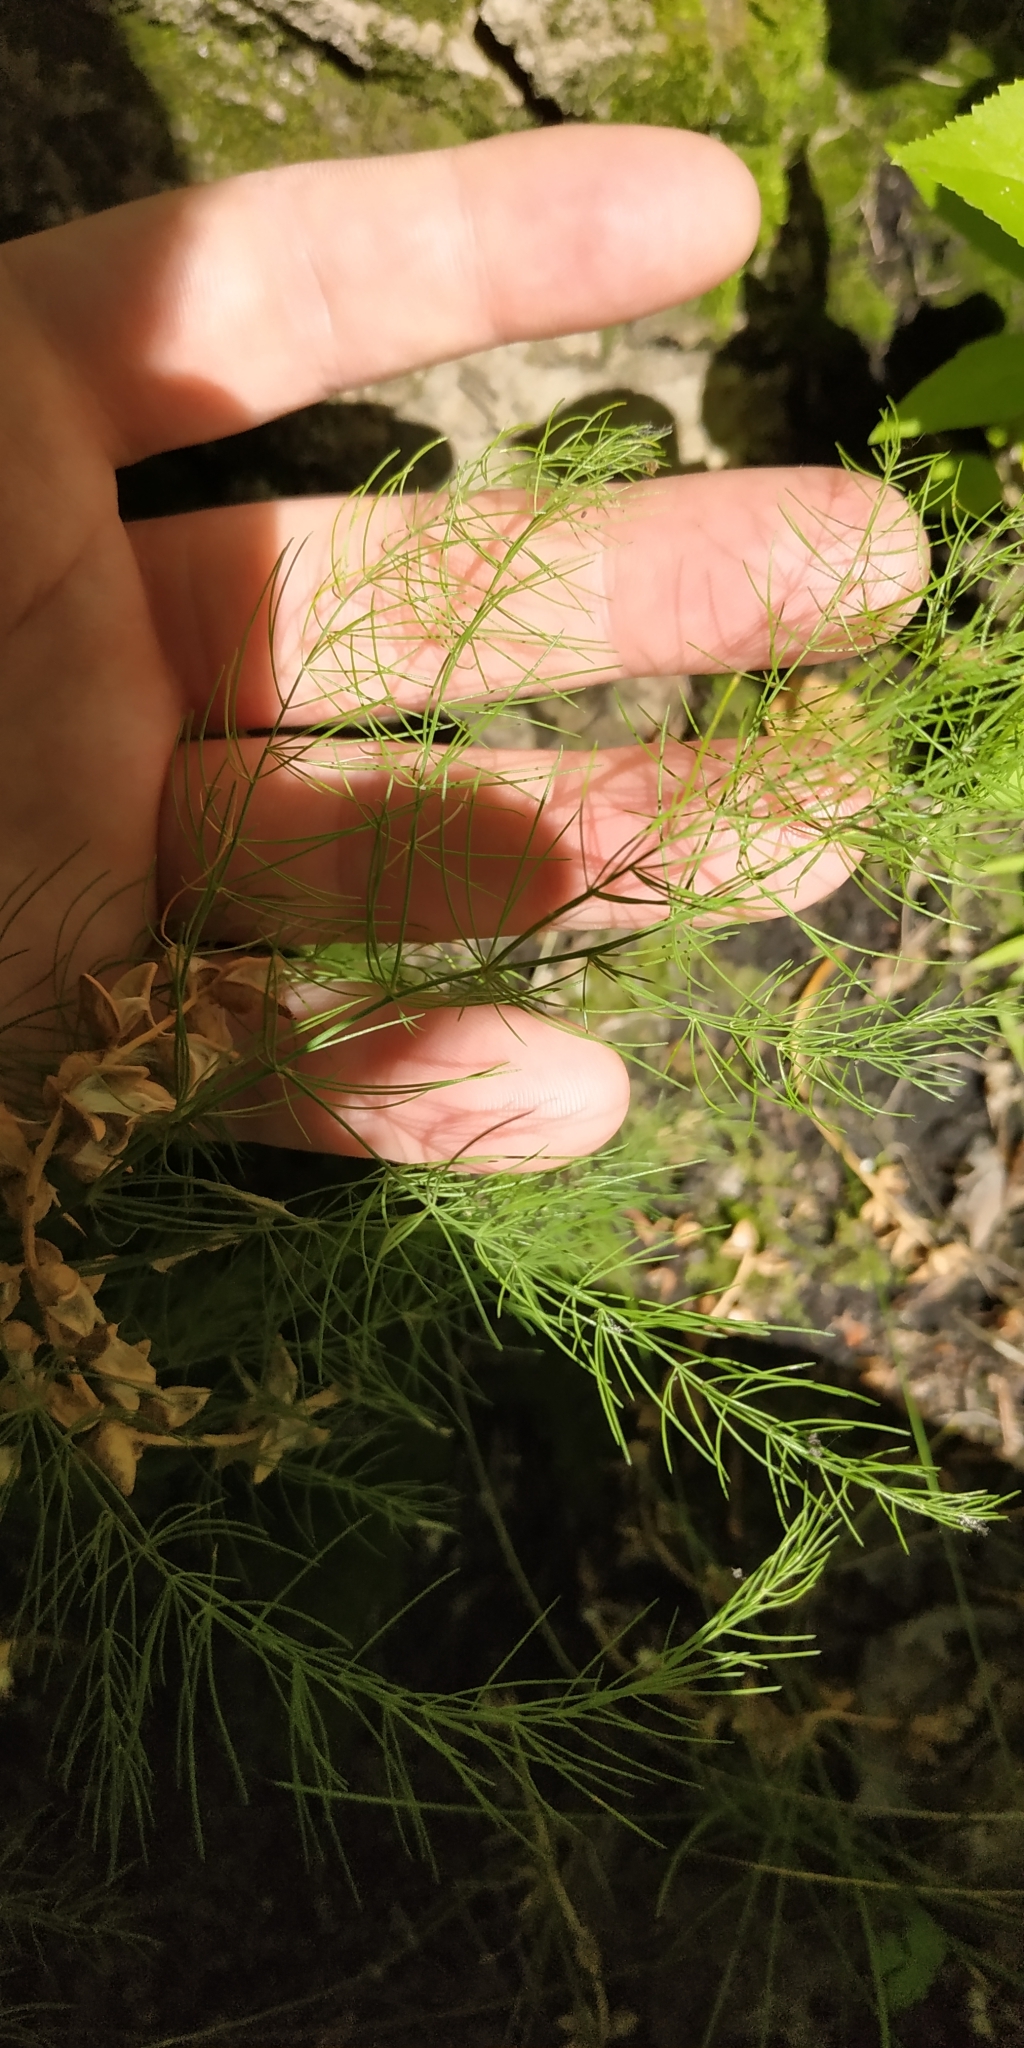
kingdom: Plantae
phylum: Tracheophyta
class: Liliopsida
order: Asparagales
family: Asparagaceae
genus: Asparagus
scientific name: Asparagus officinalis
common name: Garden asparagus
